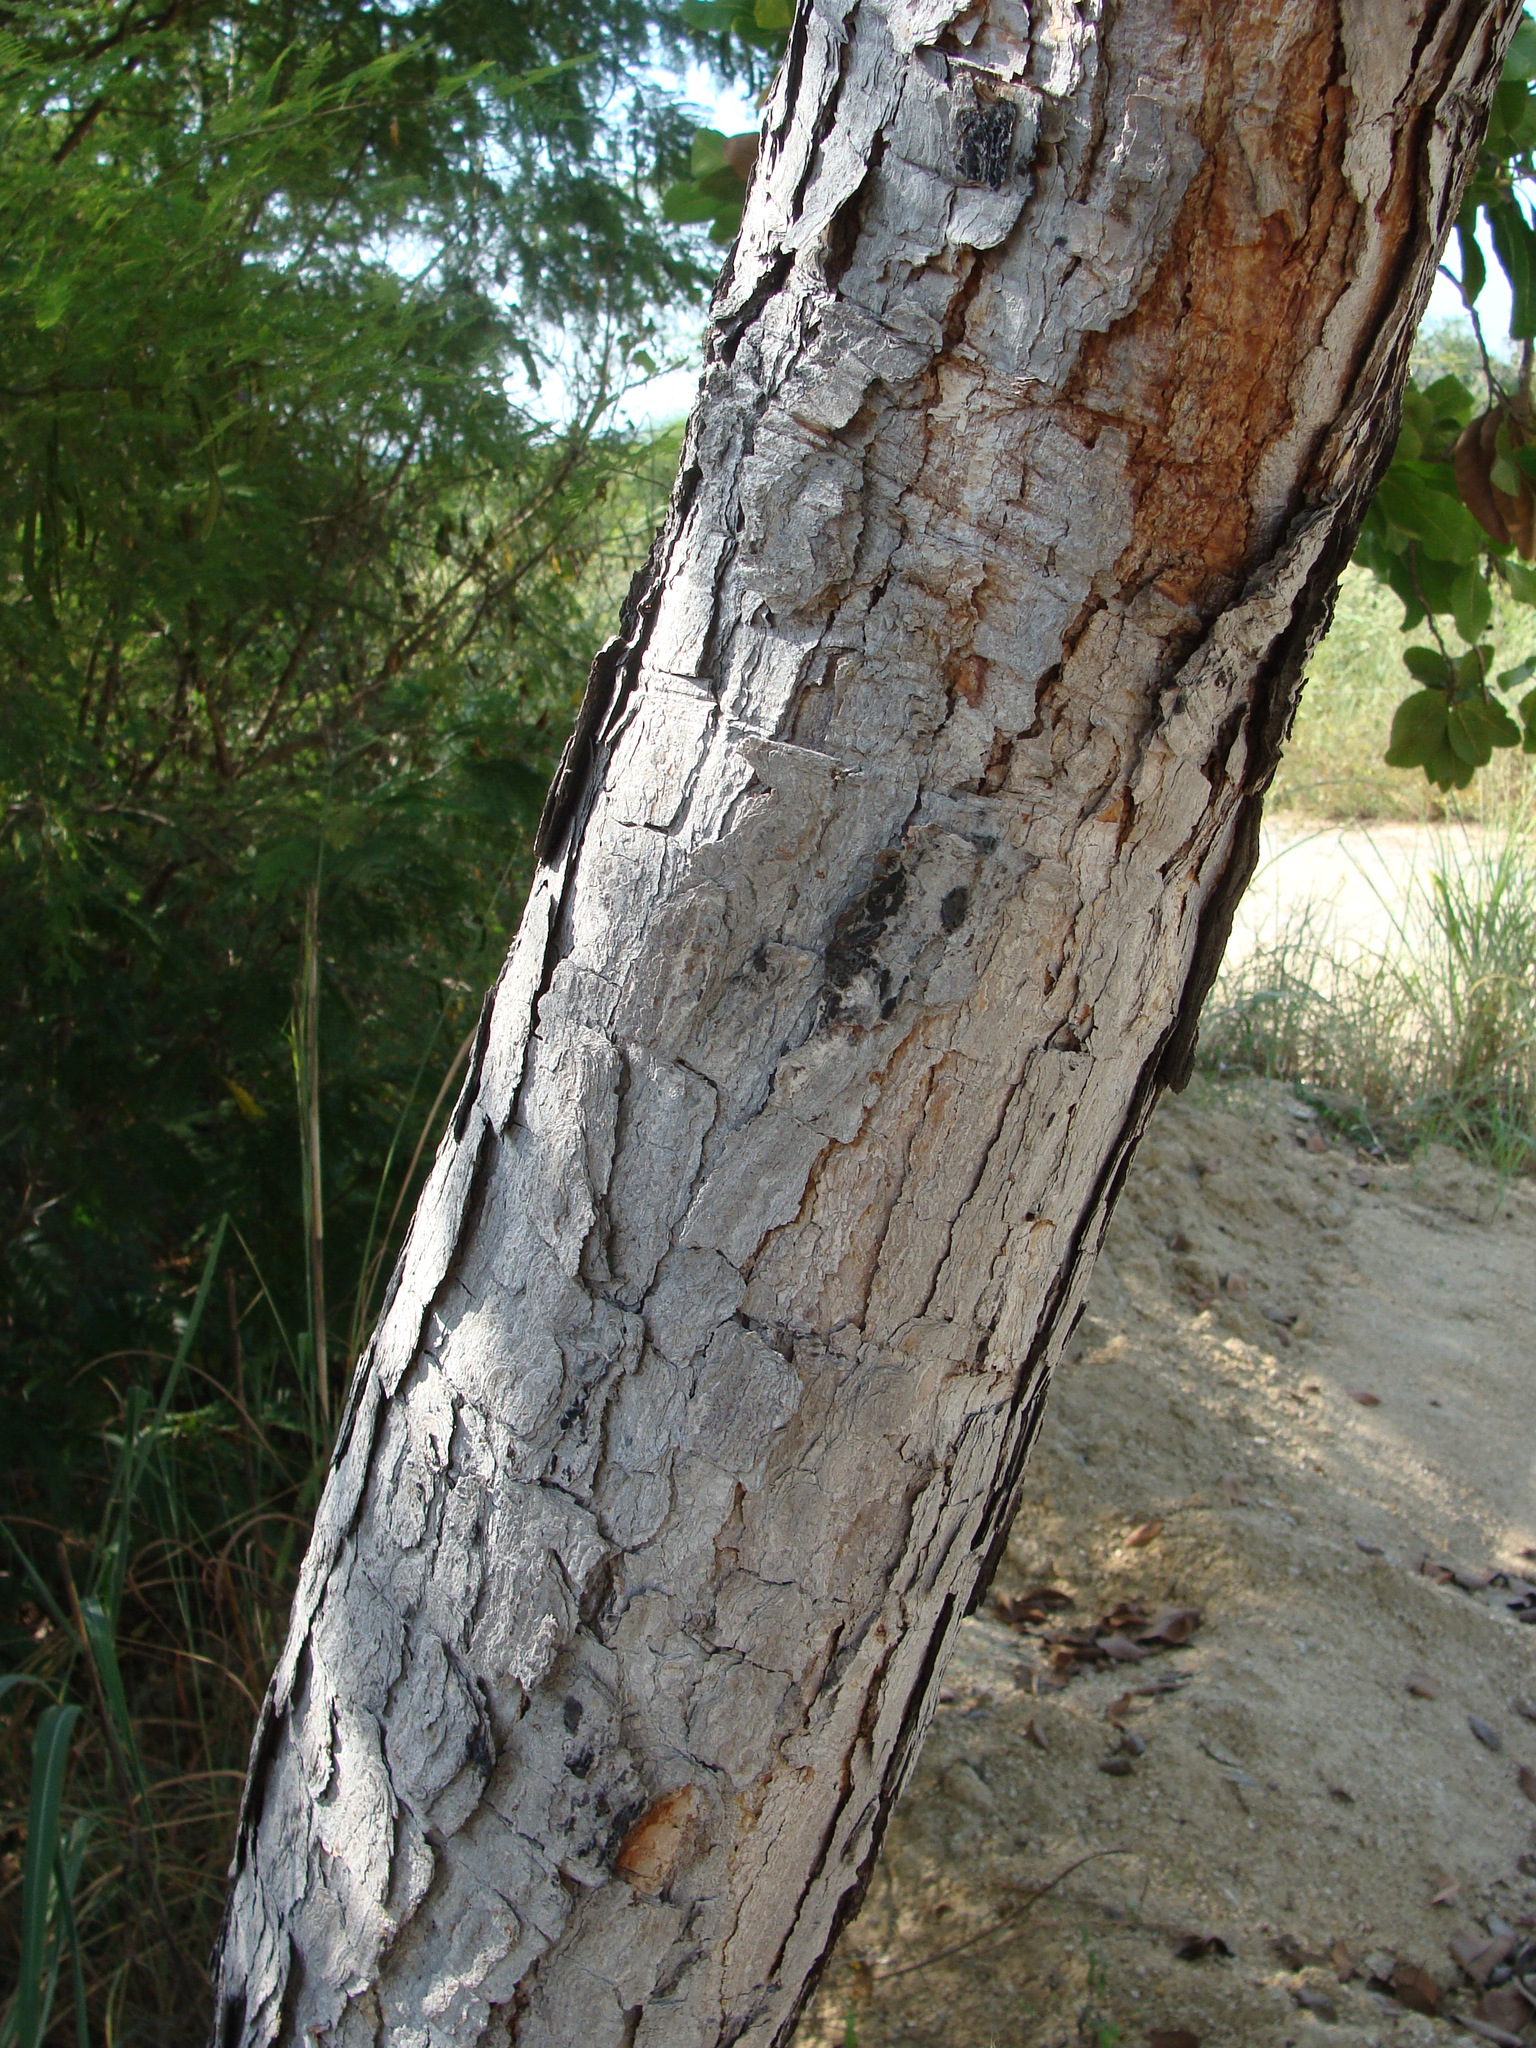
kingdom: Plantae
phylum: Tracheophyta
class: Magnoliopsida
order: Dilleniales
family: Dilleniaceae
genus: Curatella
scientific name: Curatella americana
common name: Sandpaper tree
